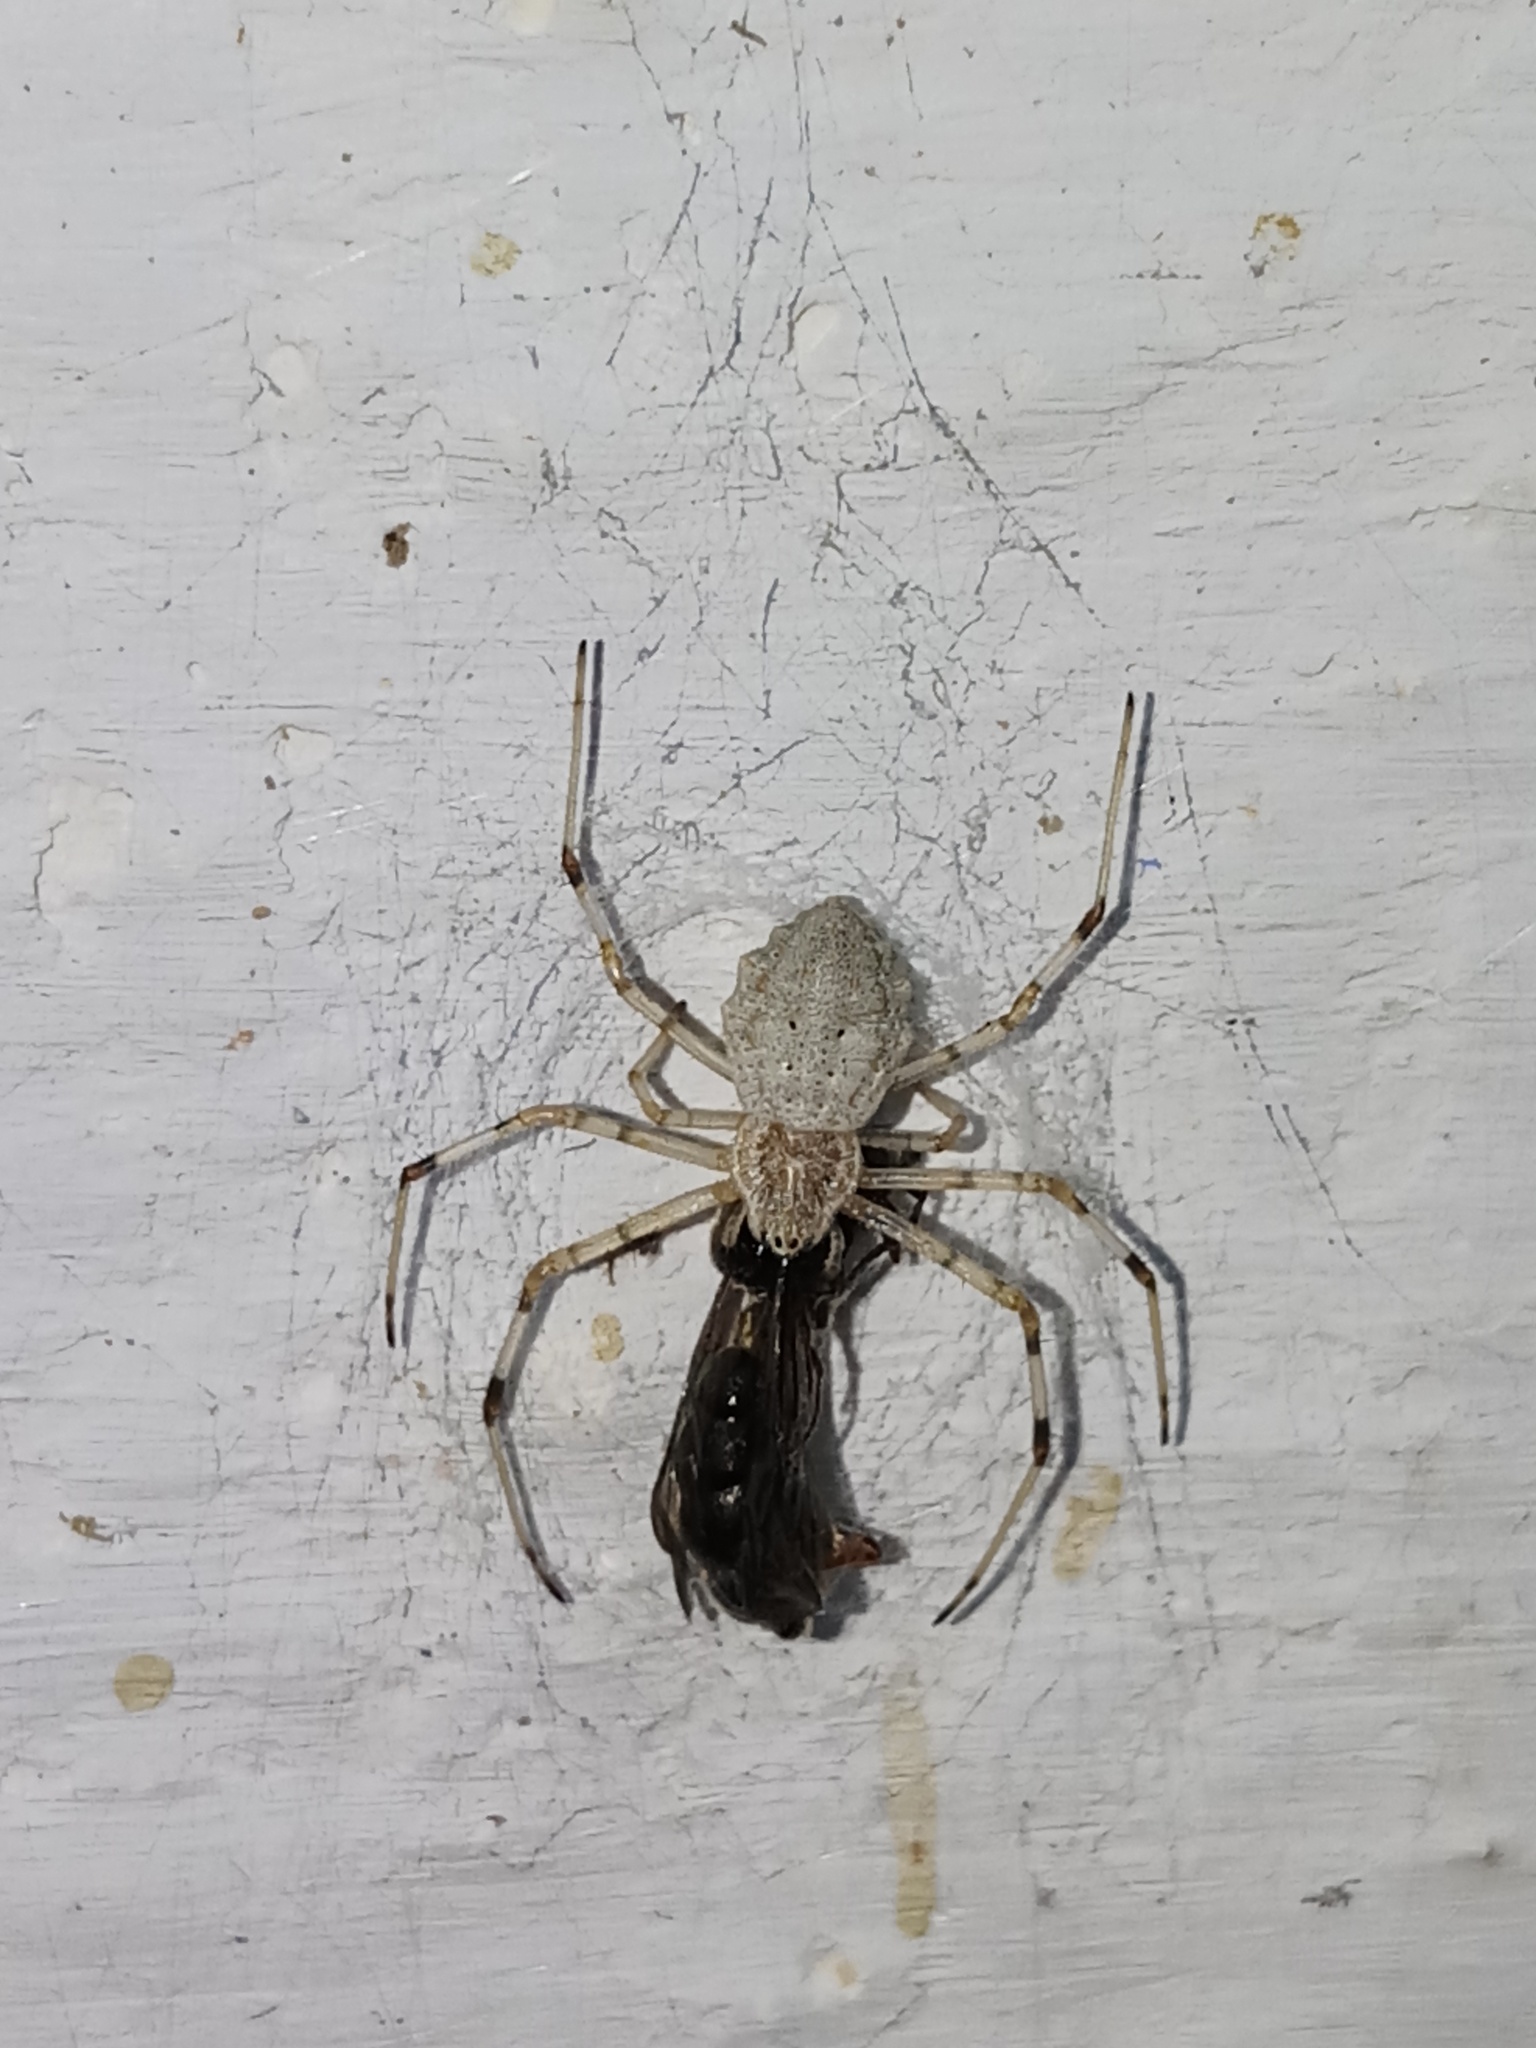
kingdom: Animalia
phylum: Arthropoda
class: Arachnida
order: Araneae
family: Araneidae
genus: Herennia
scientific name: Herennia multipuncta
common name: Spotted coin spider
